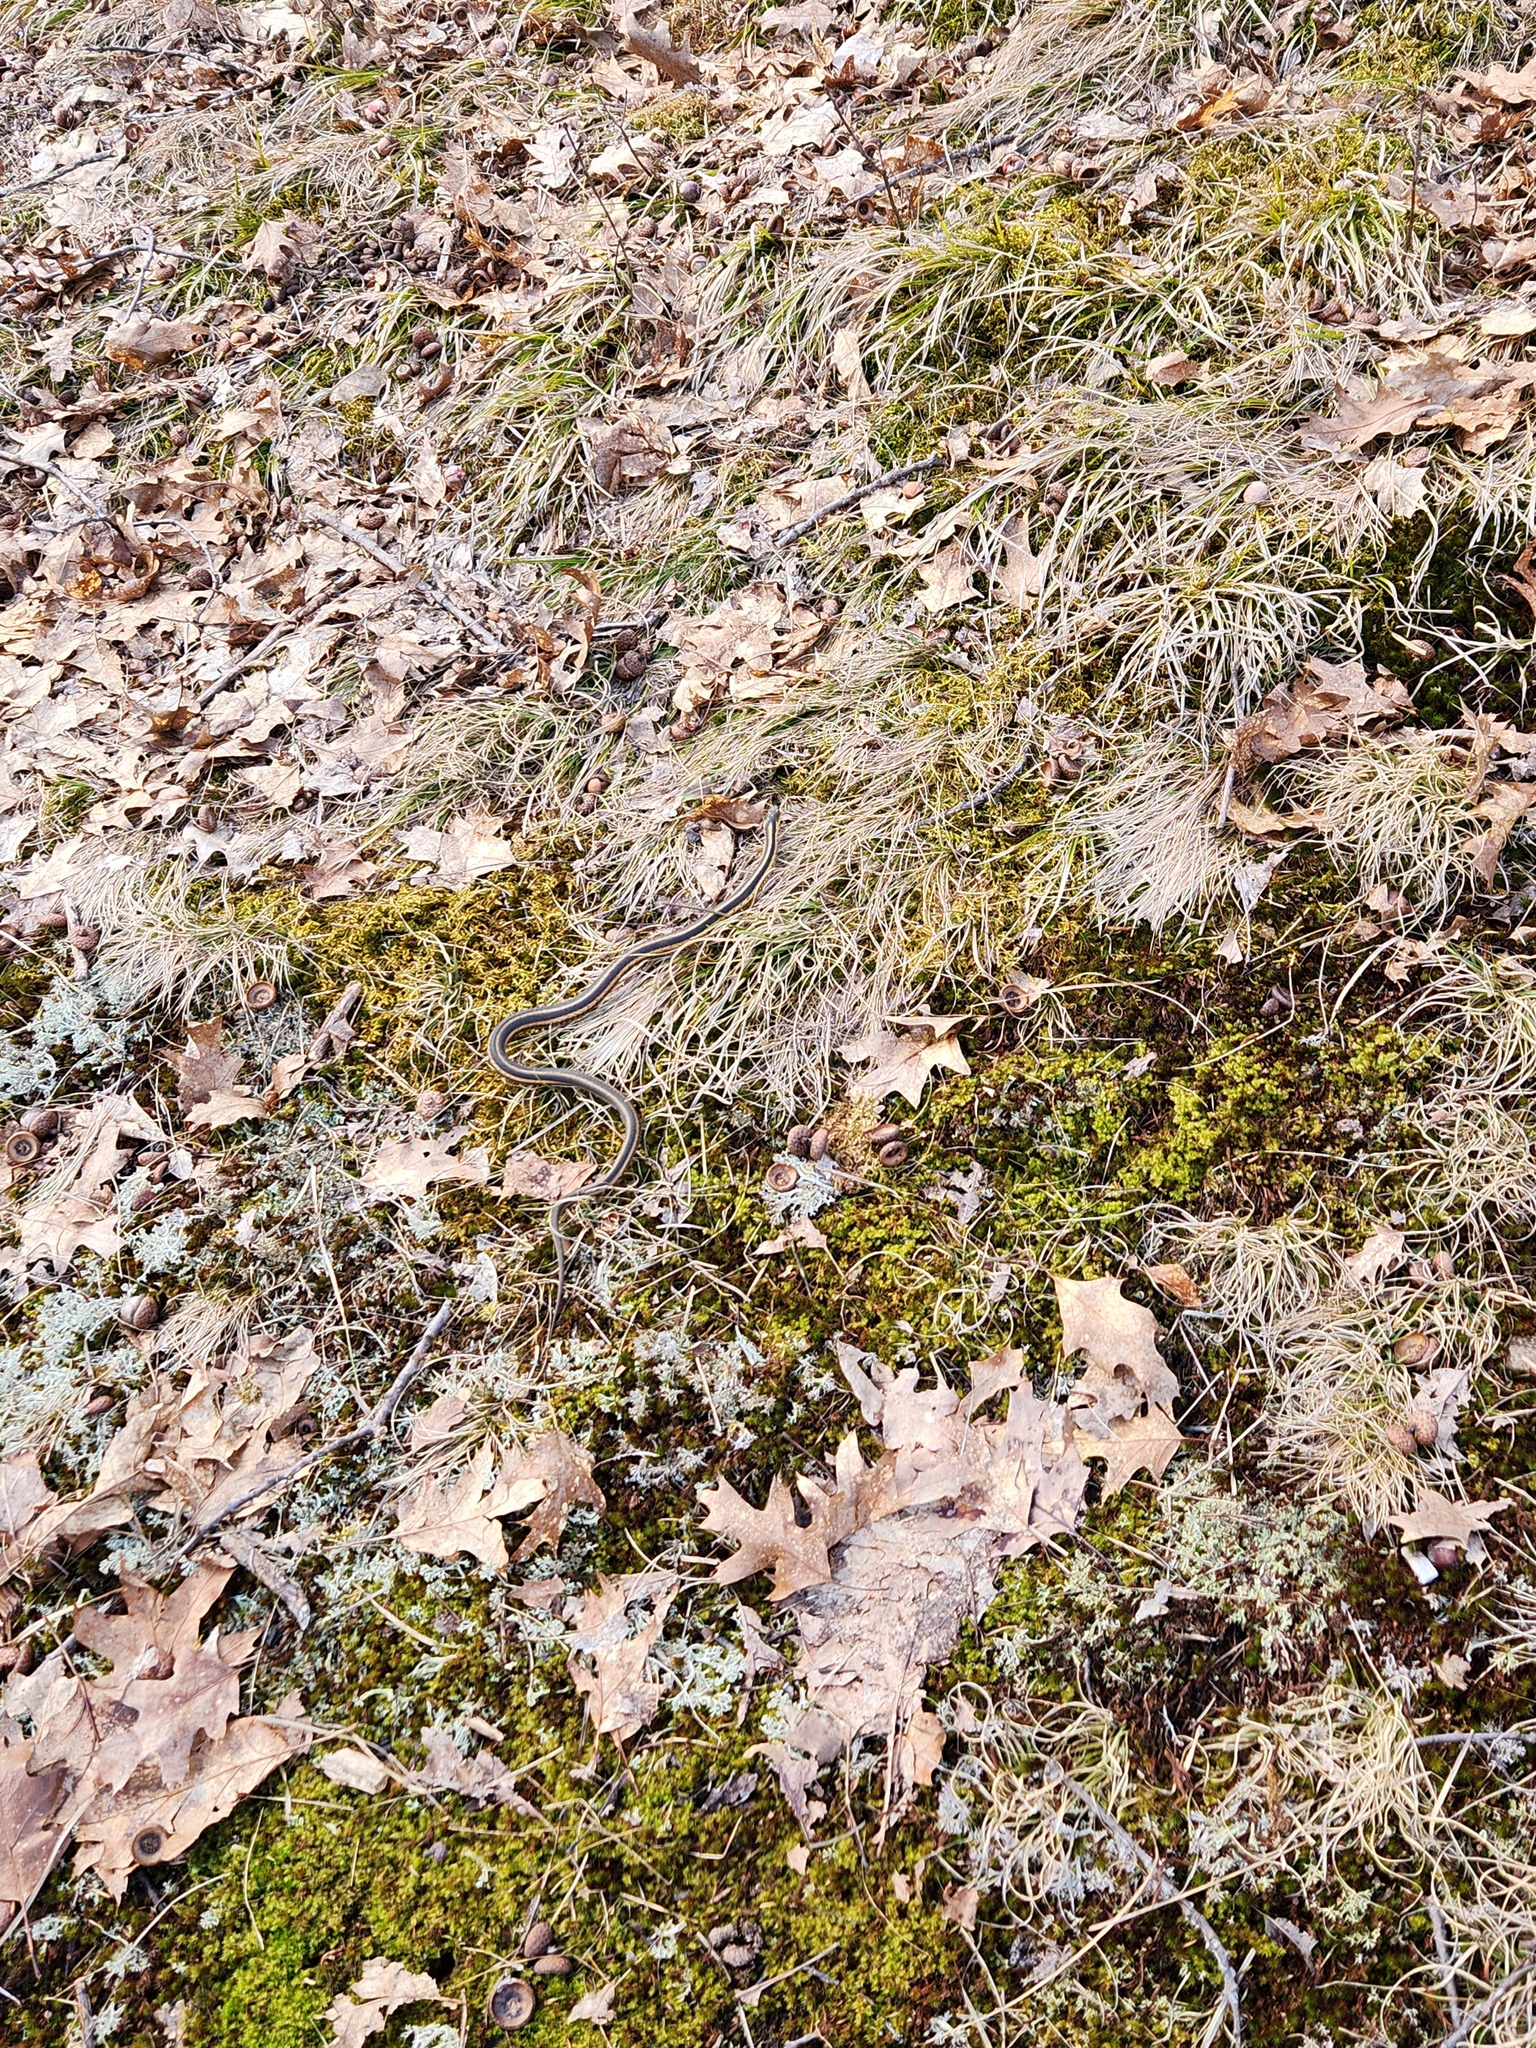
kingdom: Animalia
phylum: Chordata
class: Squamata
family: Colubridae
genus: Thamnophis
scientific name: Thamnophis sirtalis
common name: Common garter snake
